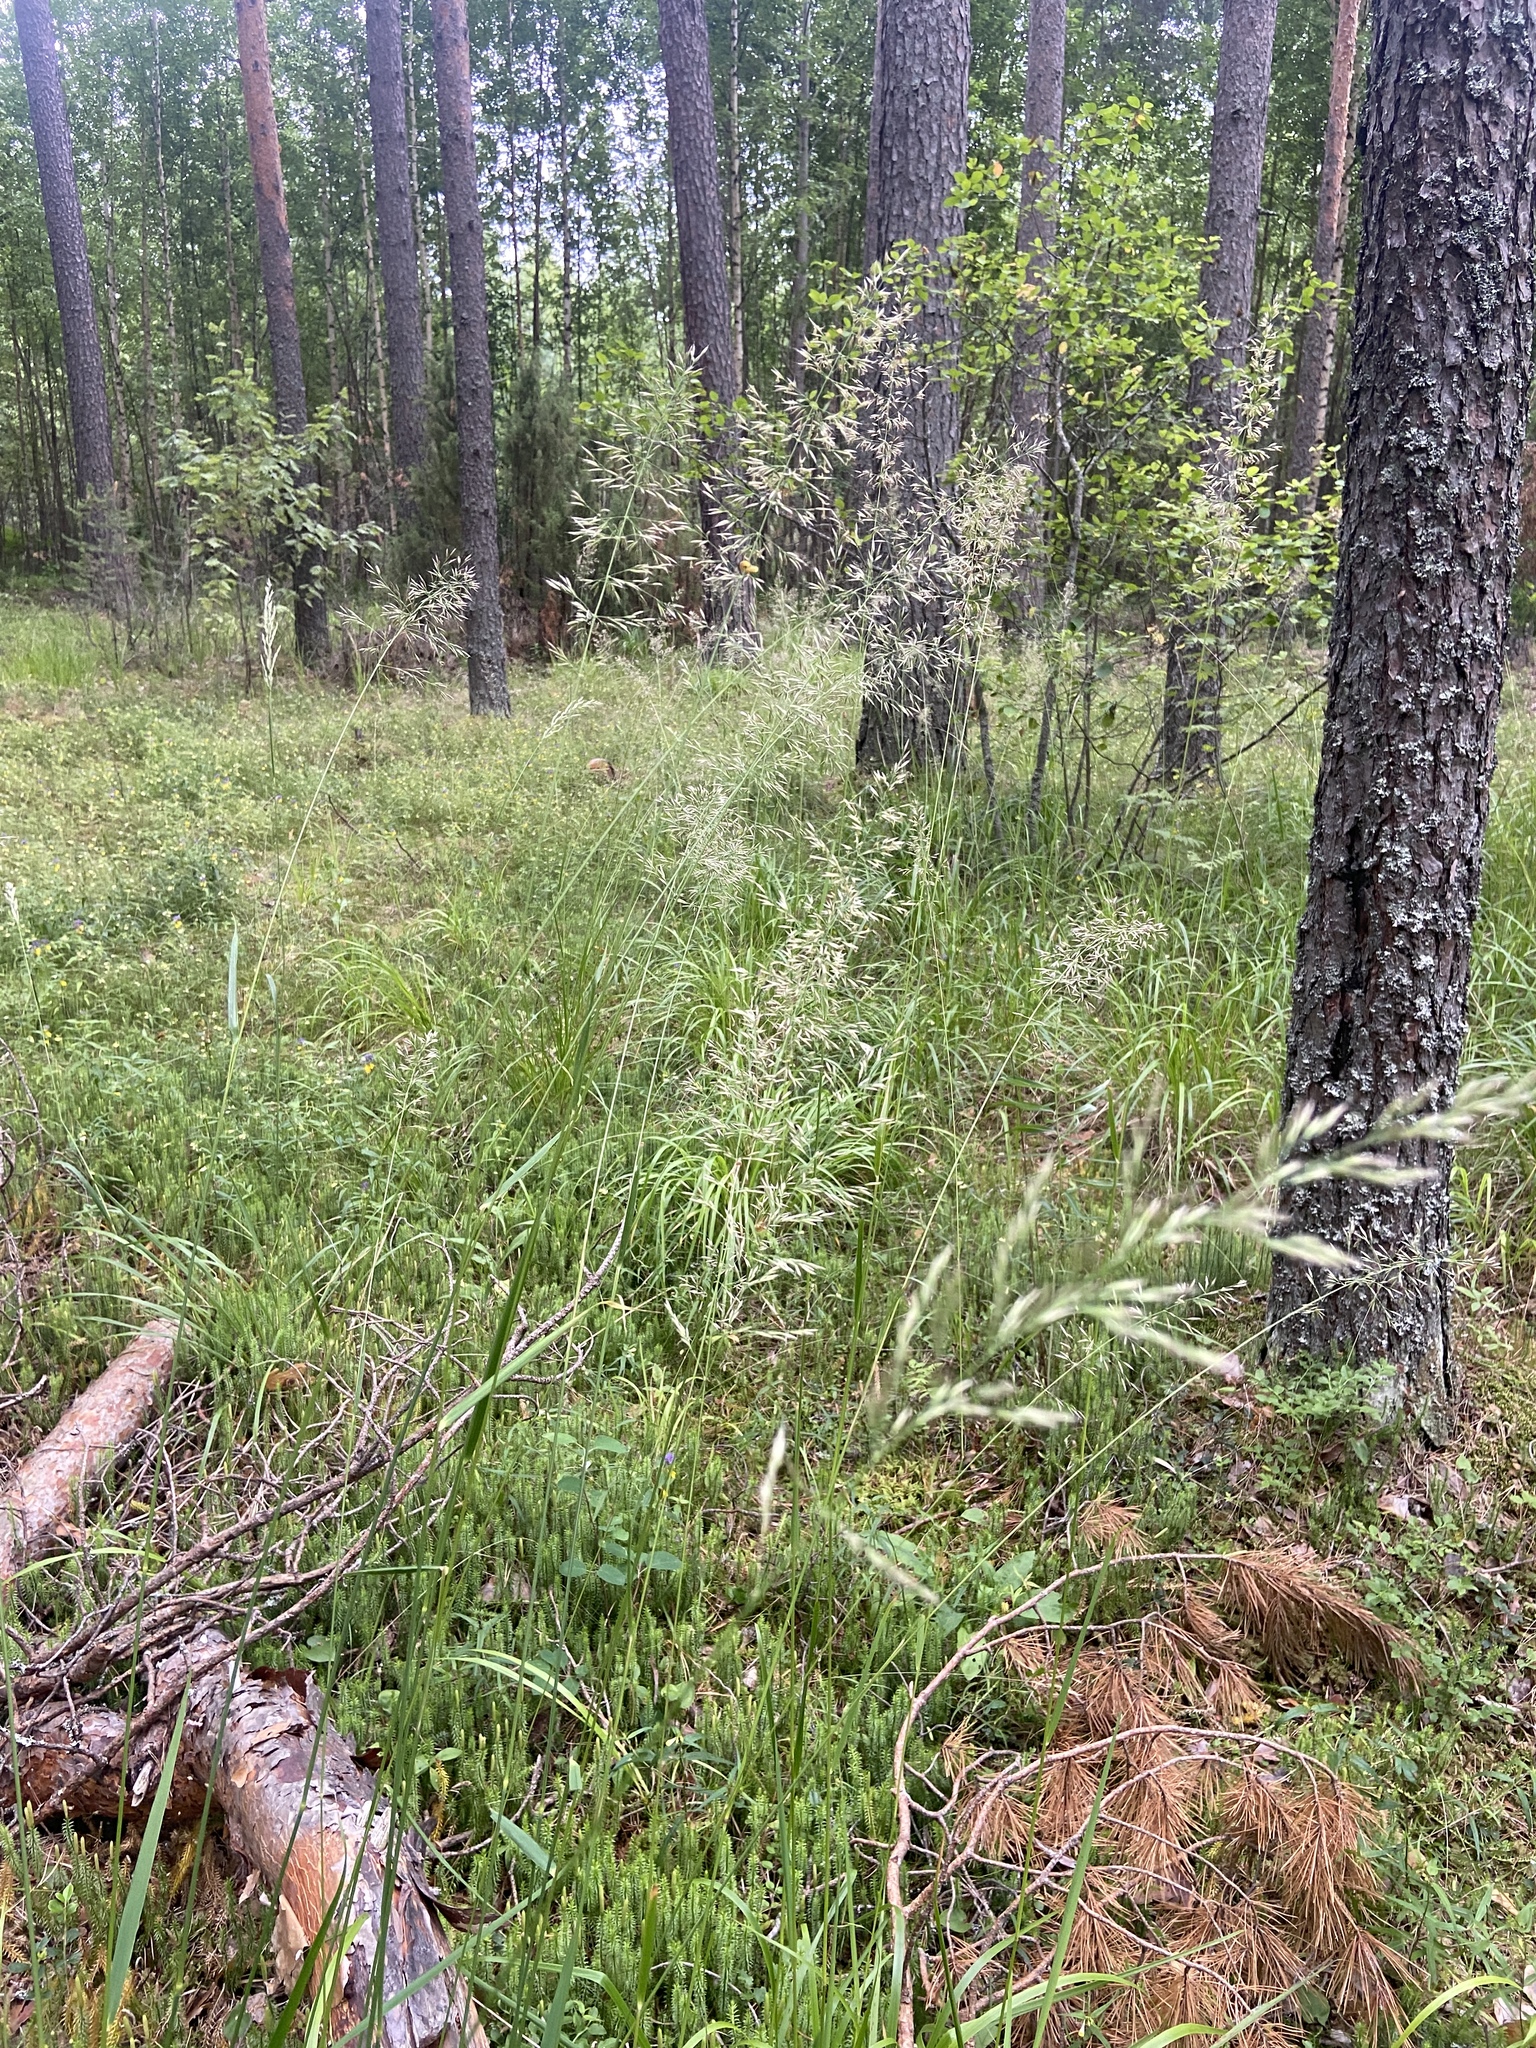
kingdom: Plantae
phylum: Tracheophyta
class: Liliopsida
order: Poales
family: Poaceae
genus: Calamagrostis
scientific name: Calamagrostis arundinacea
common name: Metskastik
